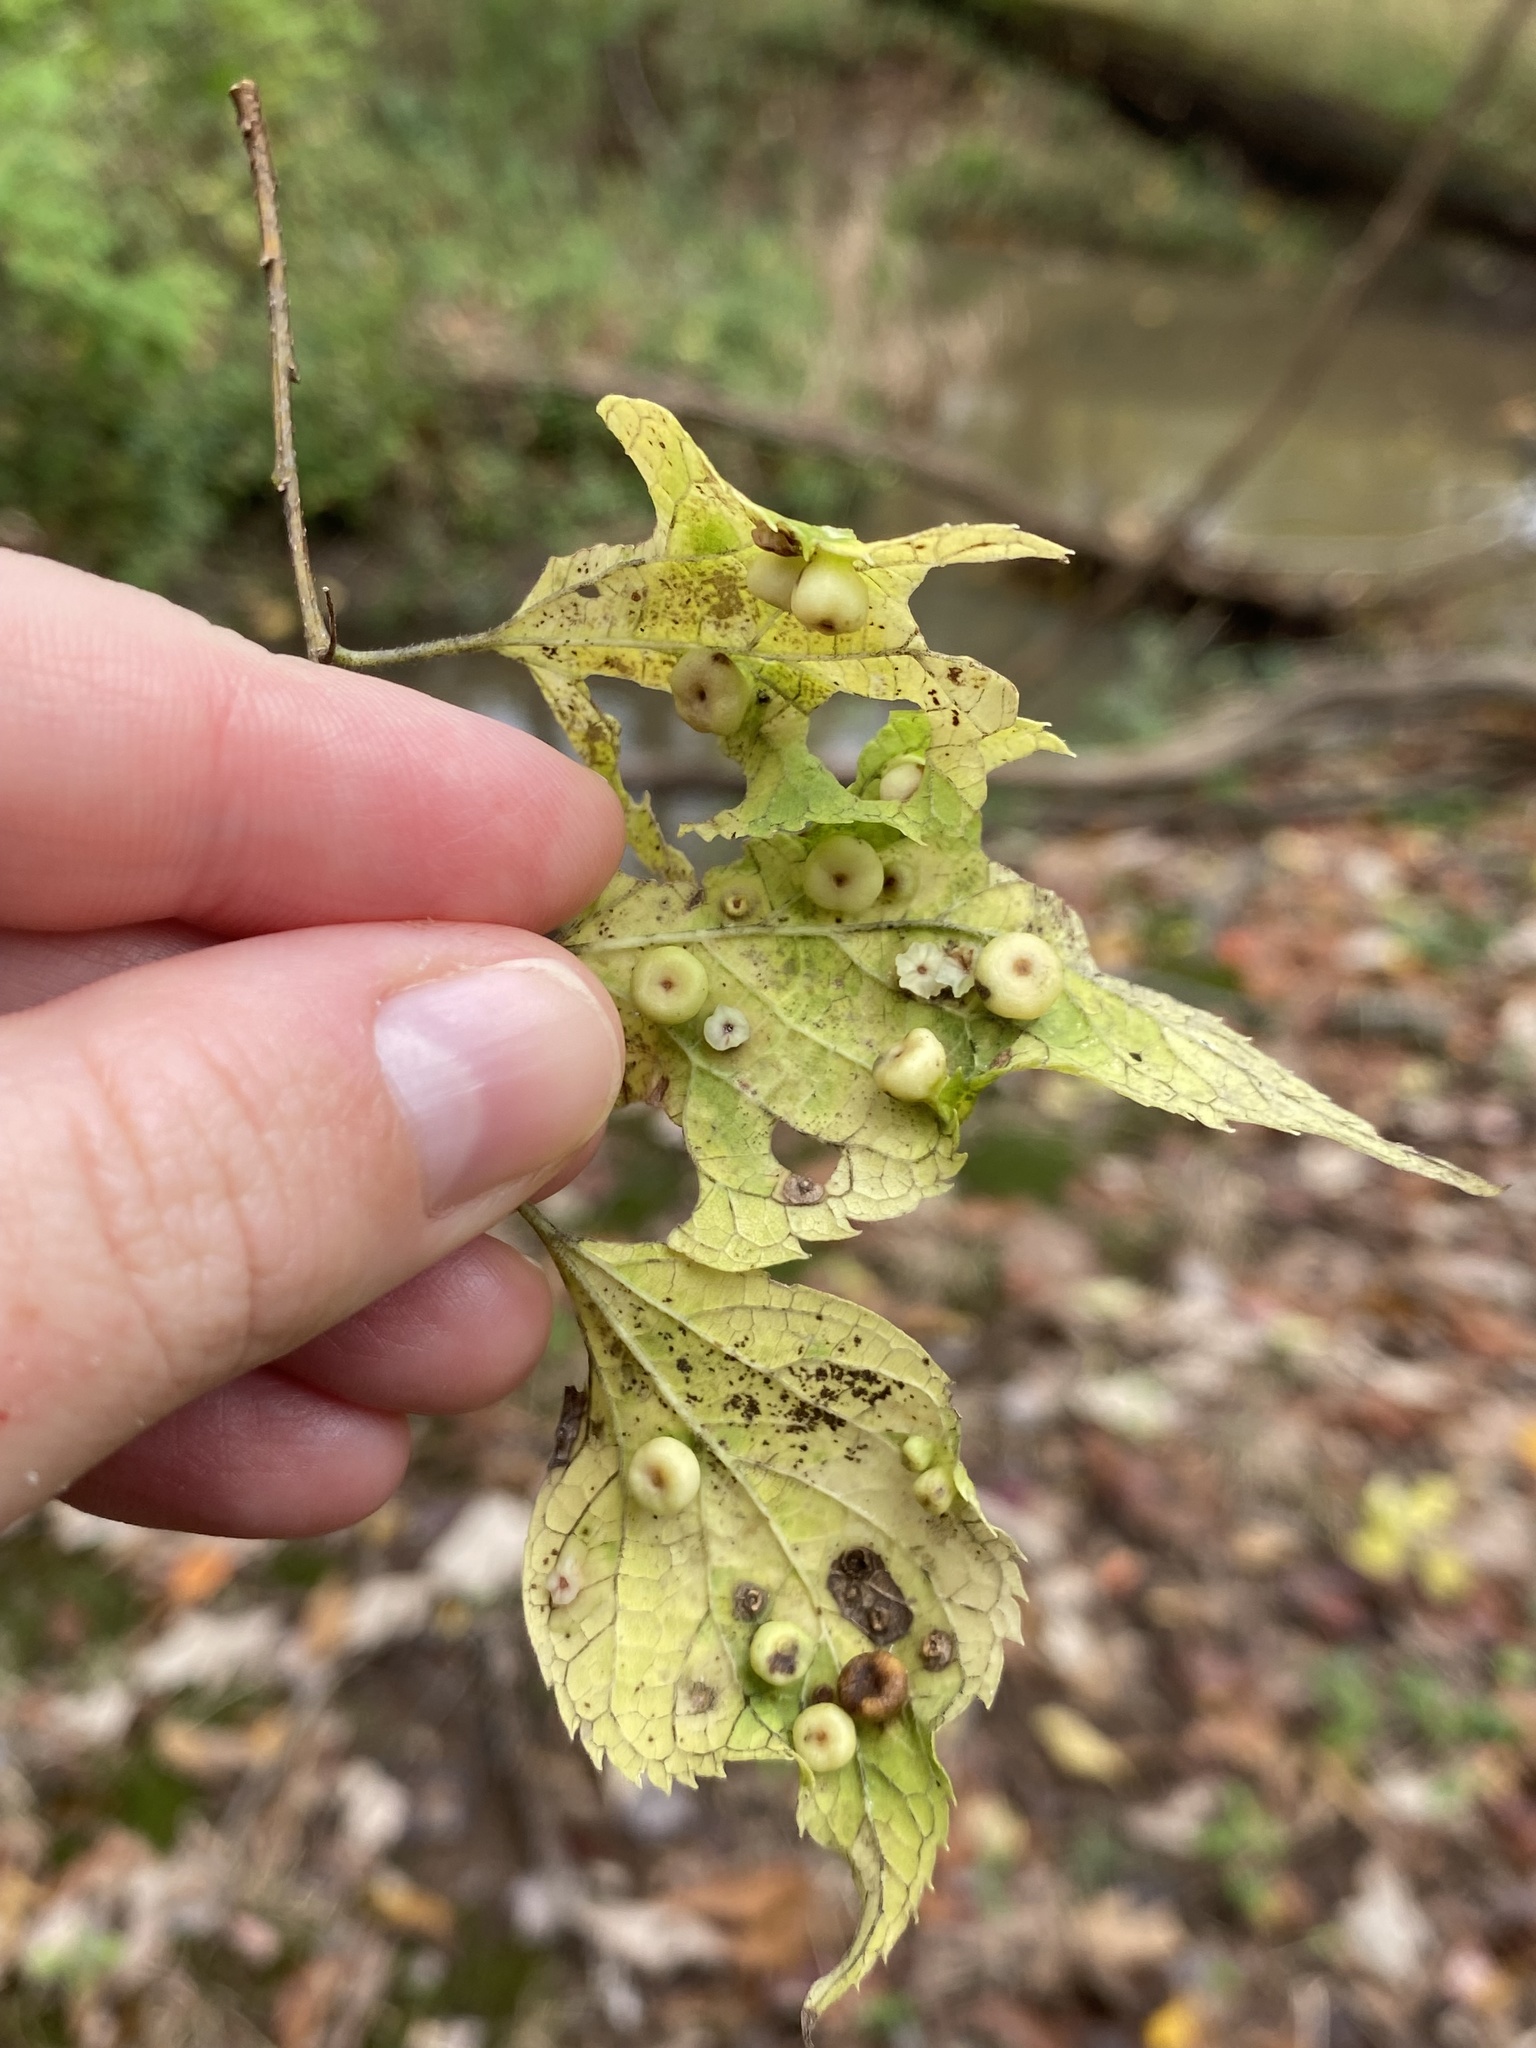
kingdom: Animalia
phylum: Arthropoda
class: Insecta
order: Hemiptera
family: Aphalaridae
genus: Pachypsylla
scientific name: Pachypsylla celtidismamma
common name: Hackberry nipplegall psyllid
